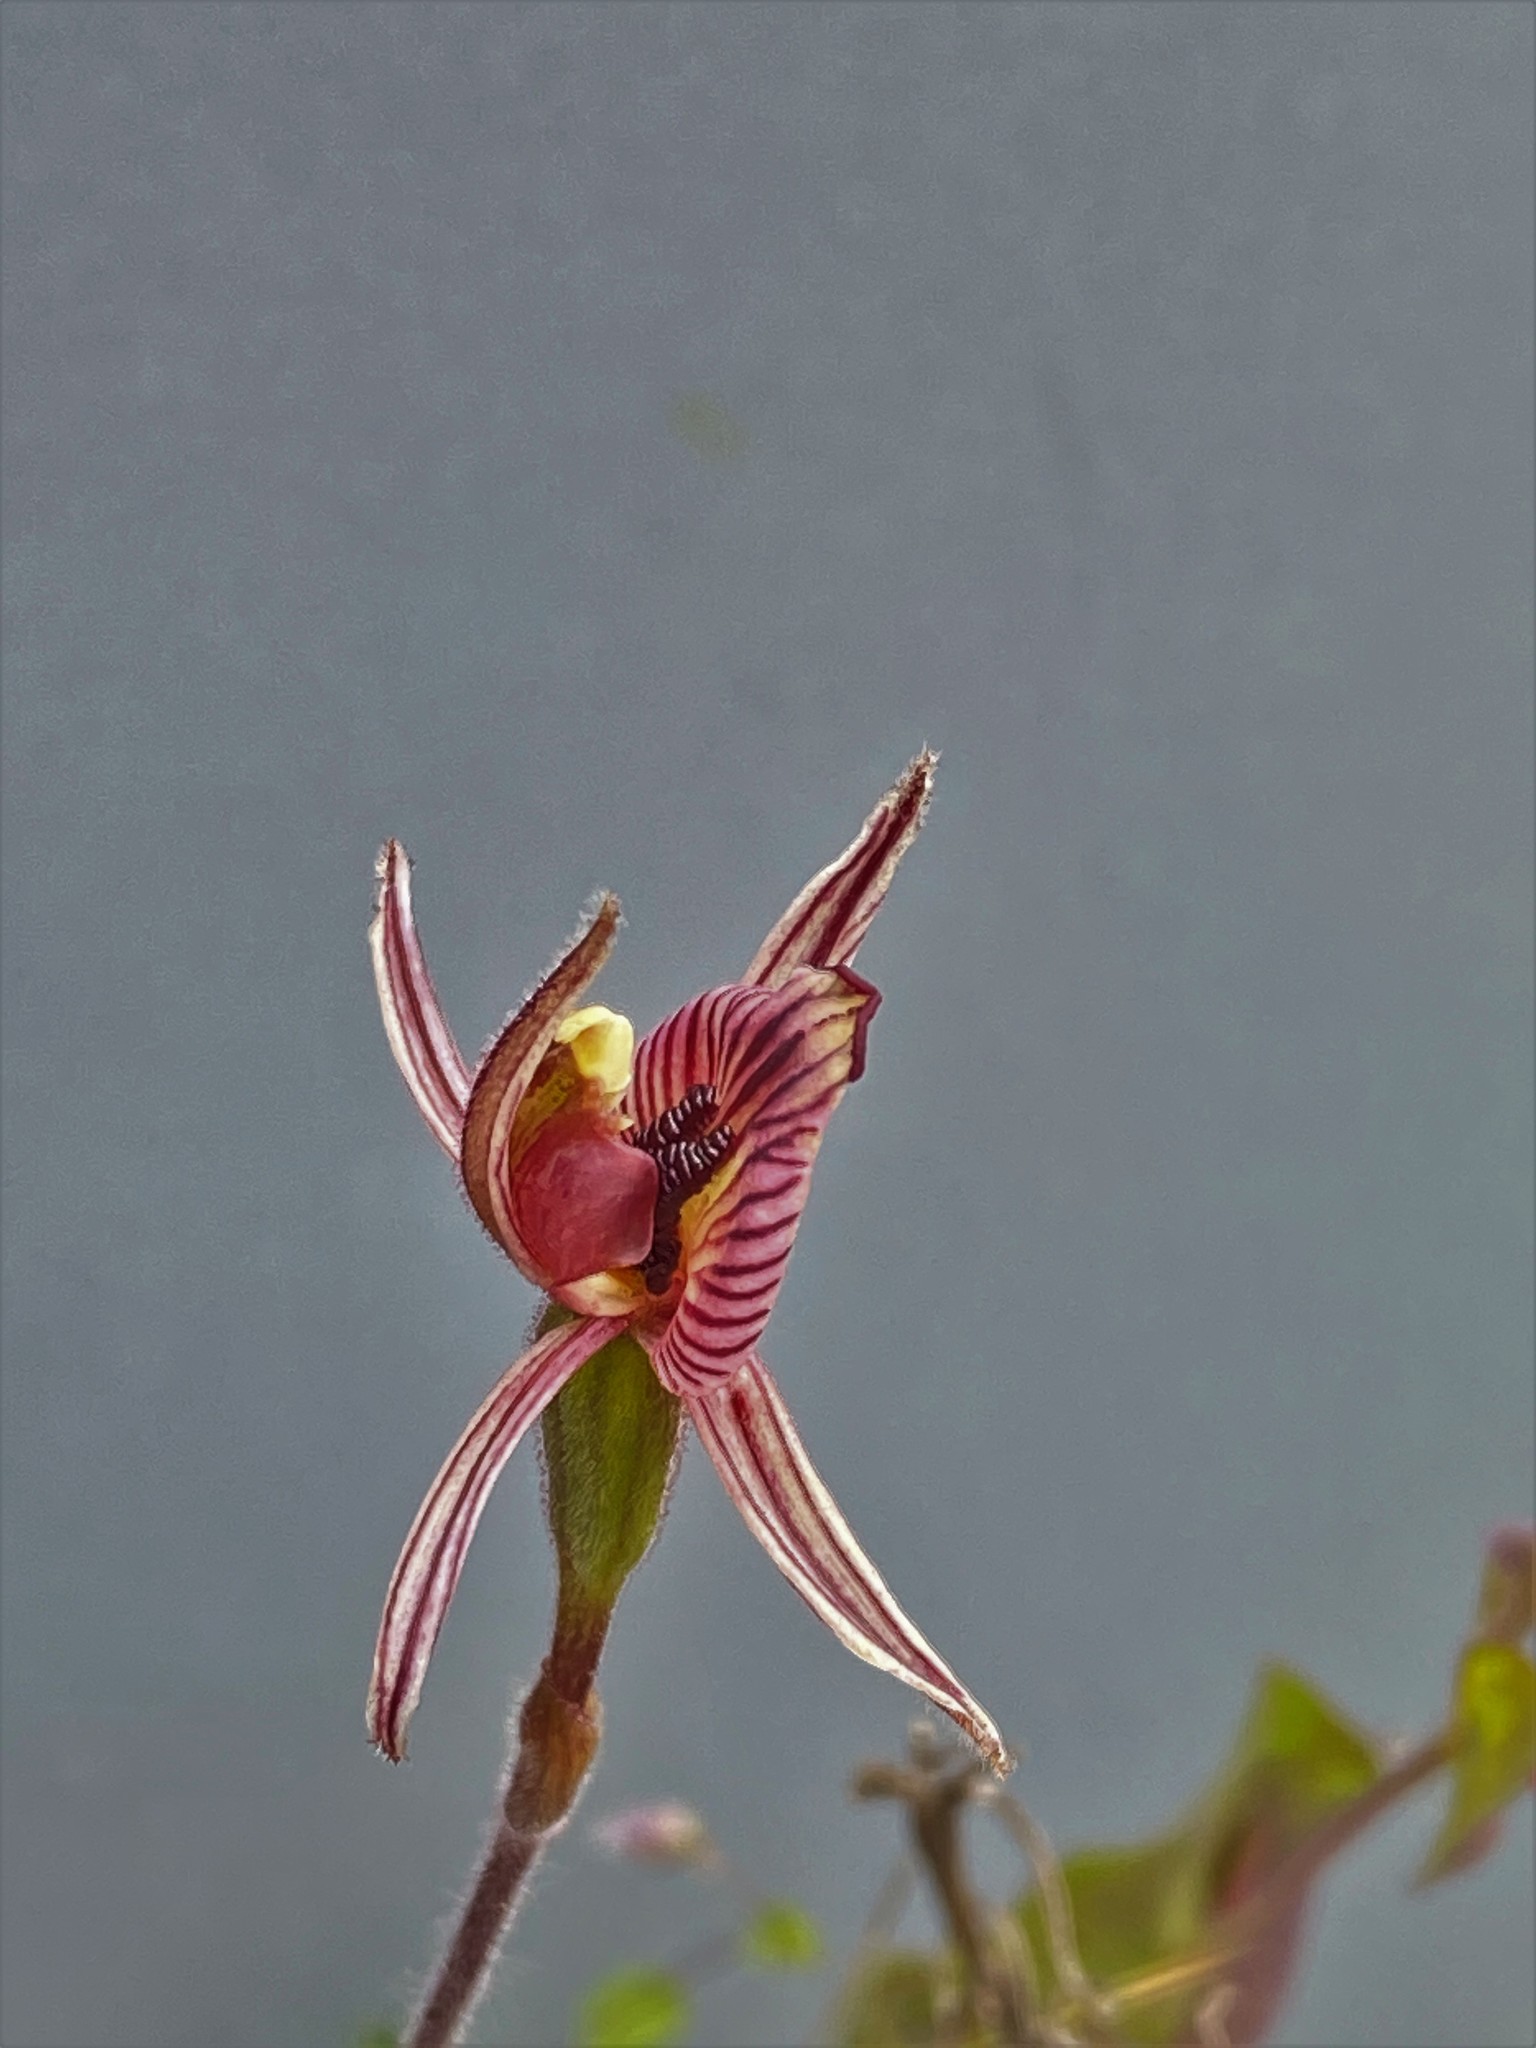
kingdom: Plantae
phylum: Tracheophyta
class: Liliopsida
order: Asparagales
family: Orchidaceae
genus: Caladenia
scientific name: Caladenia cairnsiana
